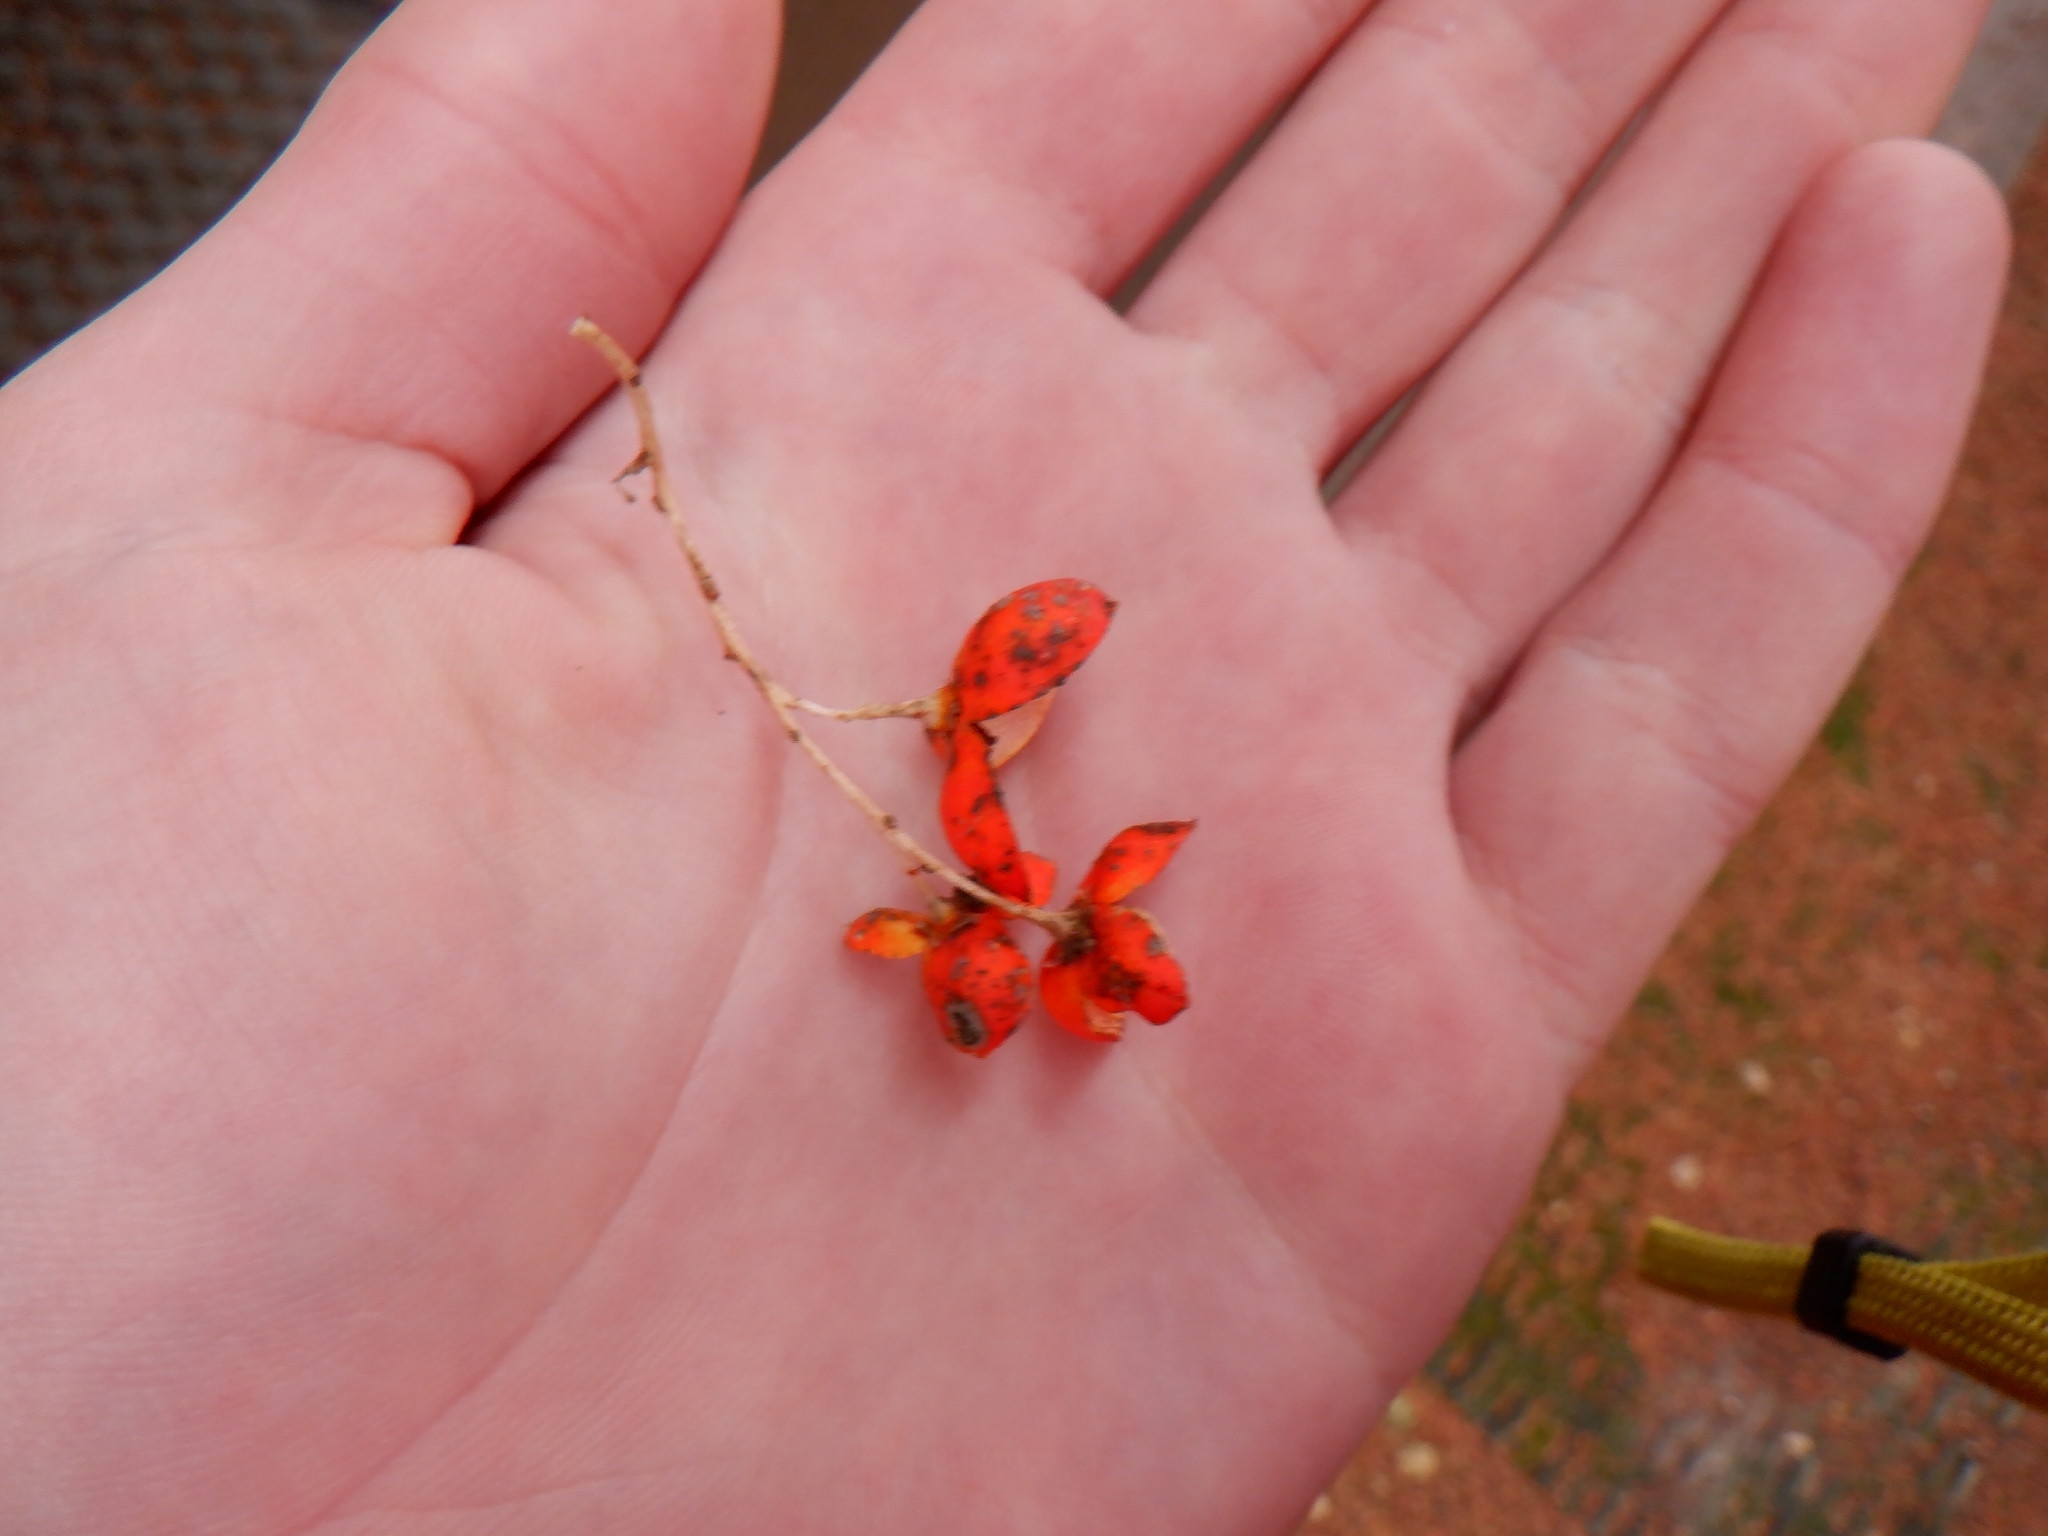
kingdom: Plantae
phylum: Tracheophyta
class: Magnoliopsida
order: Celastrales
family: Celastraceae
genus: Celastrus
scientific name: Celastrus scandens
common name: American bittersweet
